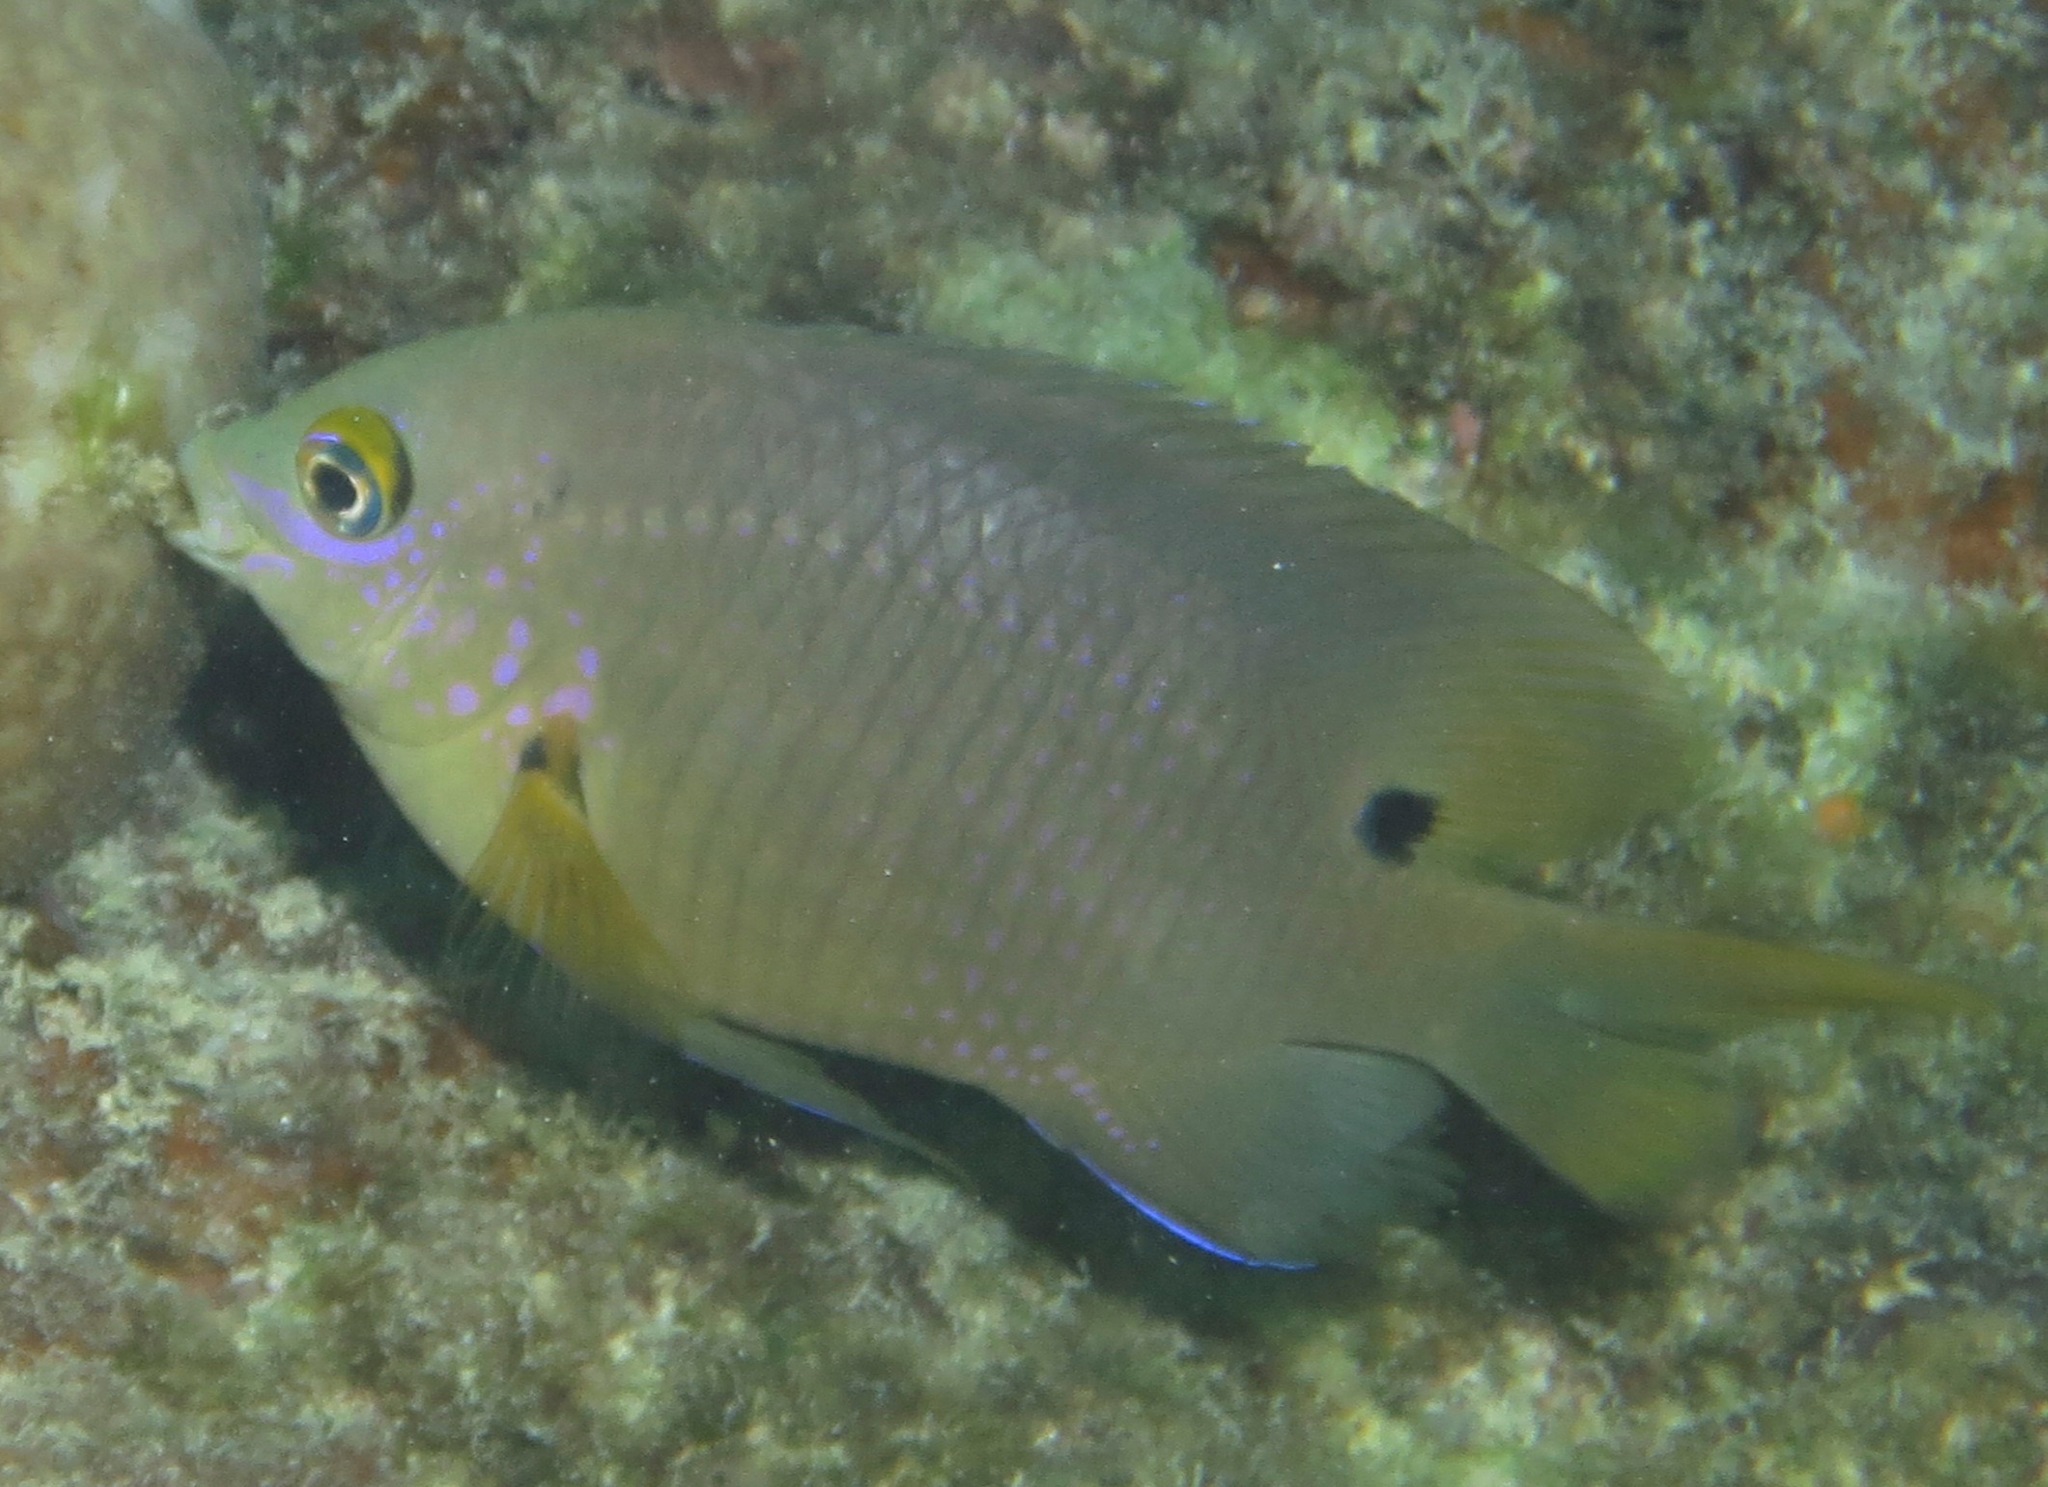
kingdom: Animalia
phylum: Chordata
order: Perciformes
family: Pomacentridae
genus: Stegastes
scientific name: Stegastes nigricans
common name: Dusky gregory
